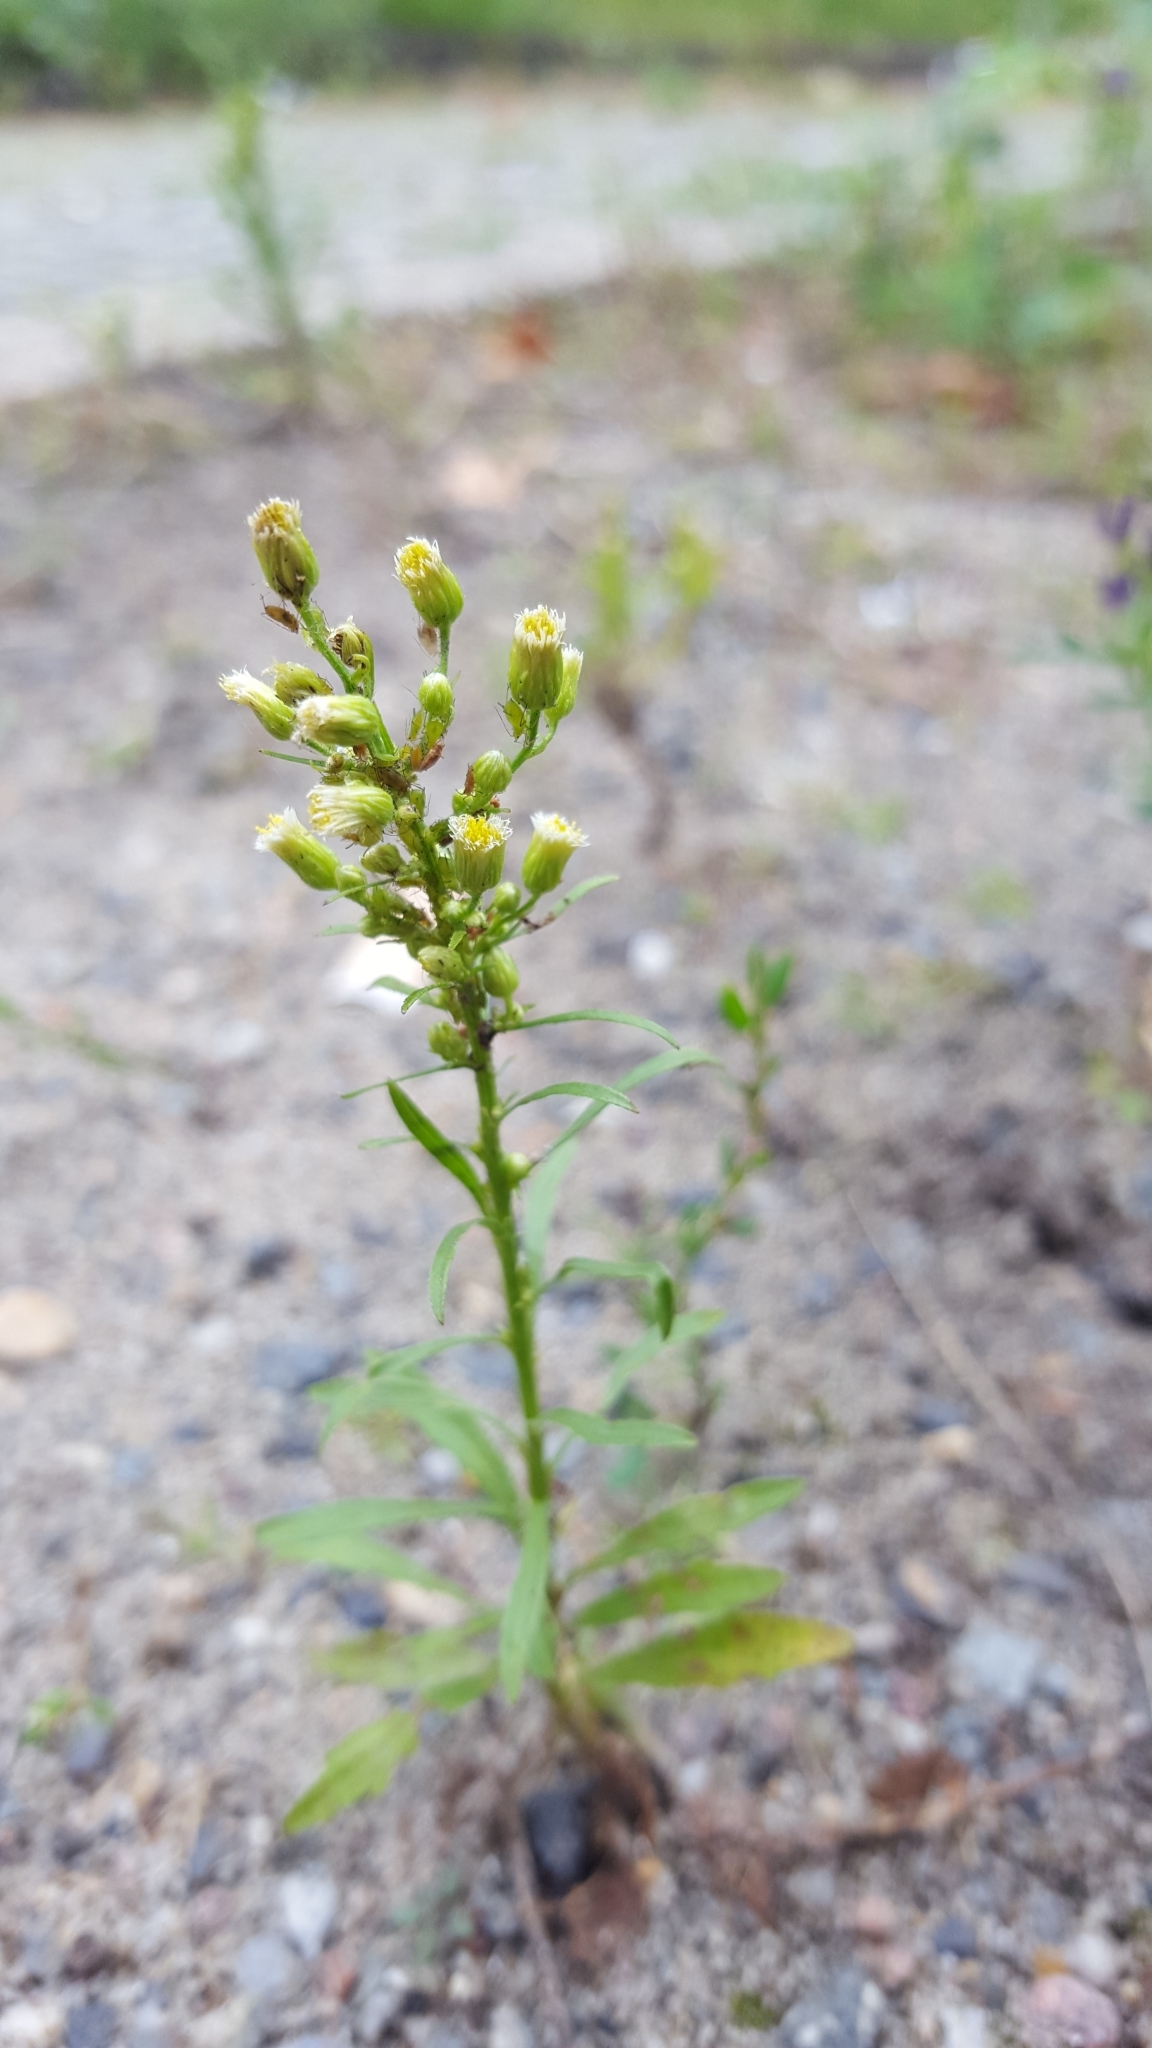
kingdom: Plantae
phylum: Tracheophyta
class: Magnoliopsida
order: Asterales
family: Asteraceae
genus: Erigeron
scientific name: Erigeron canadensis
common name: Canadian fleabane
